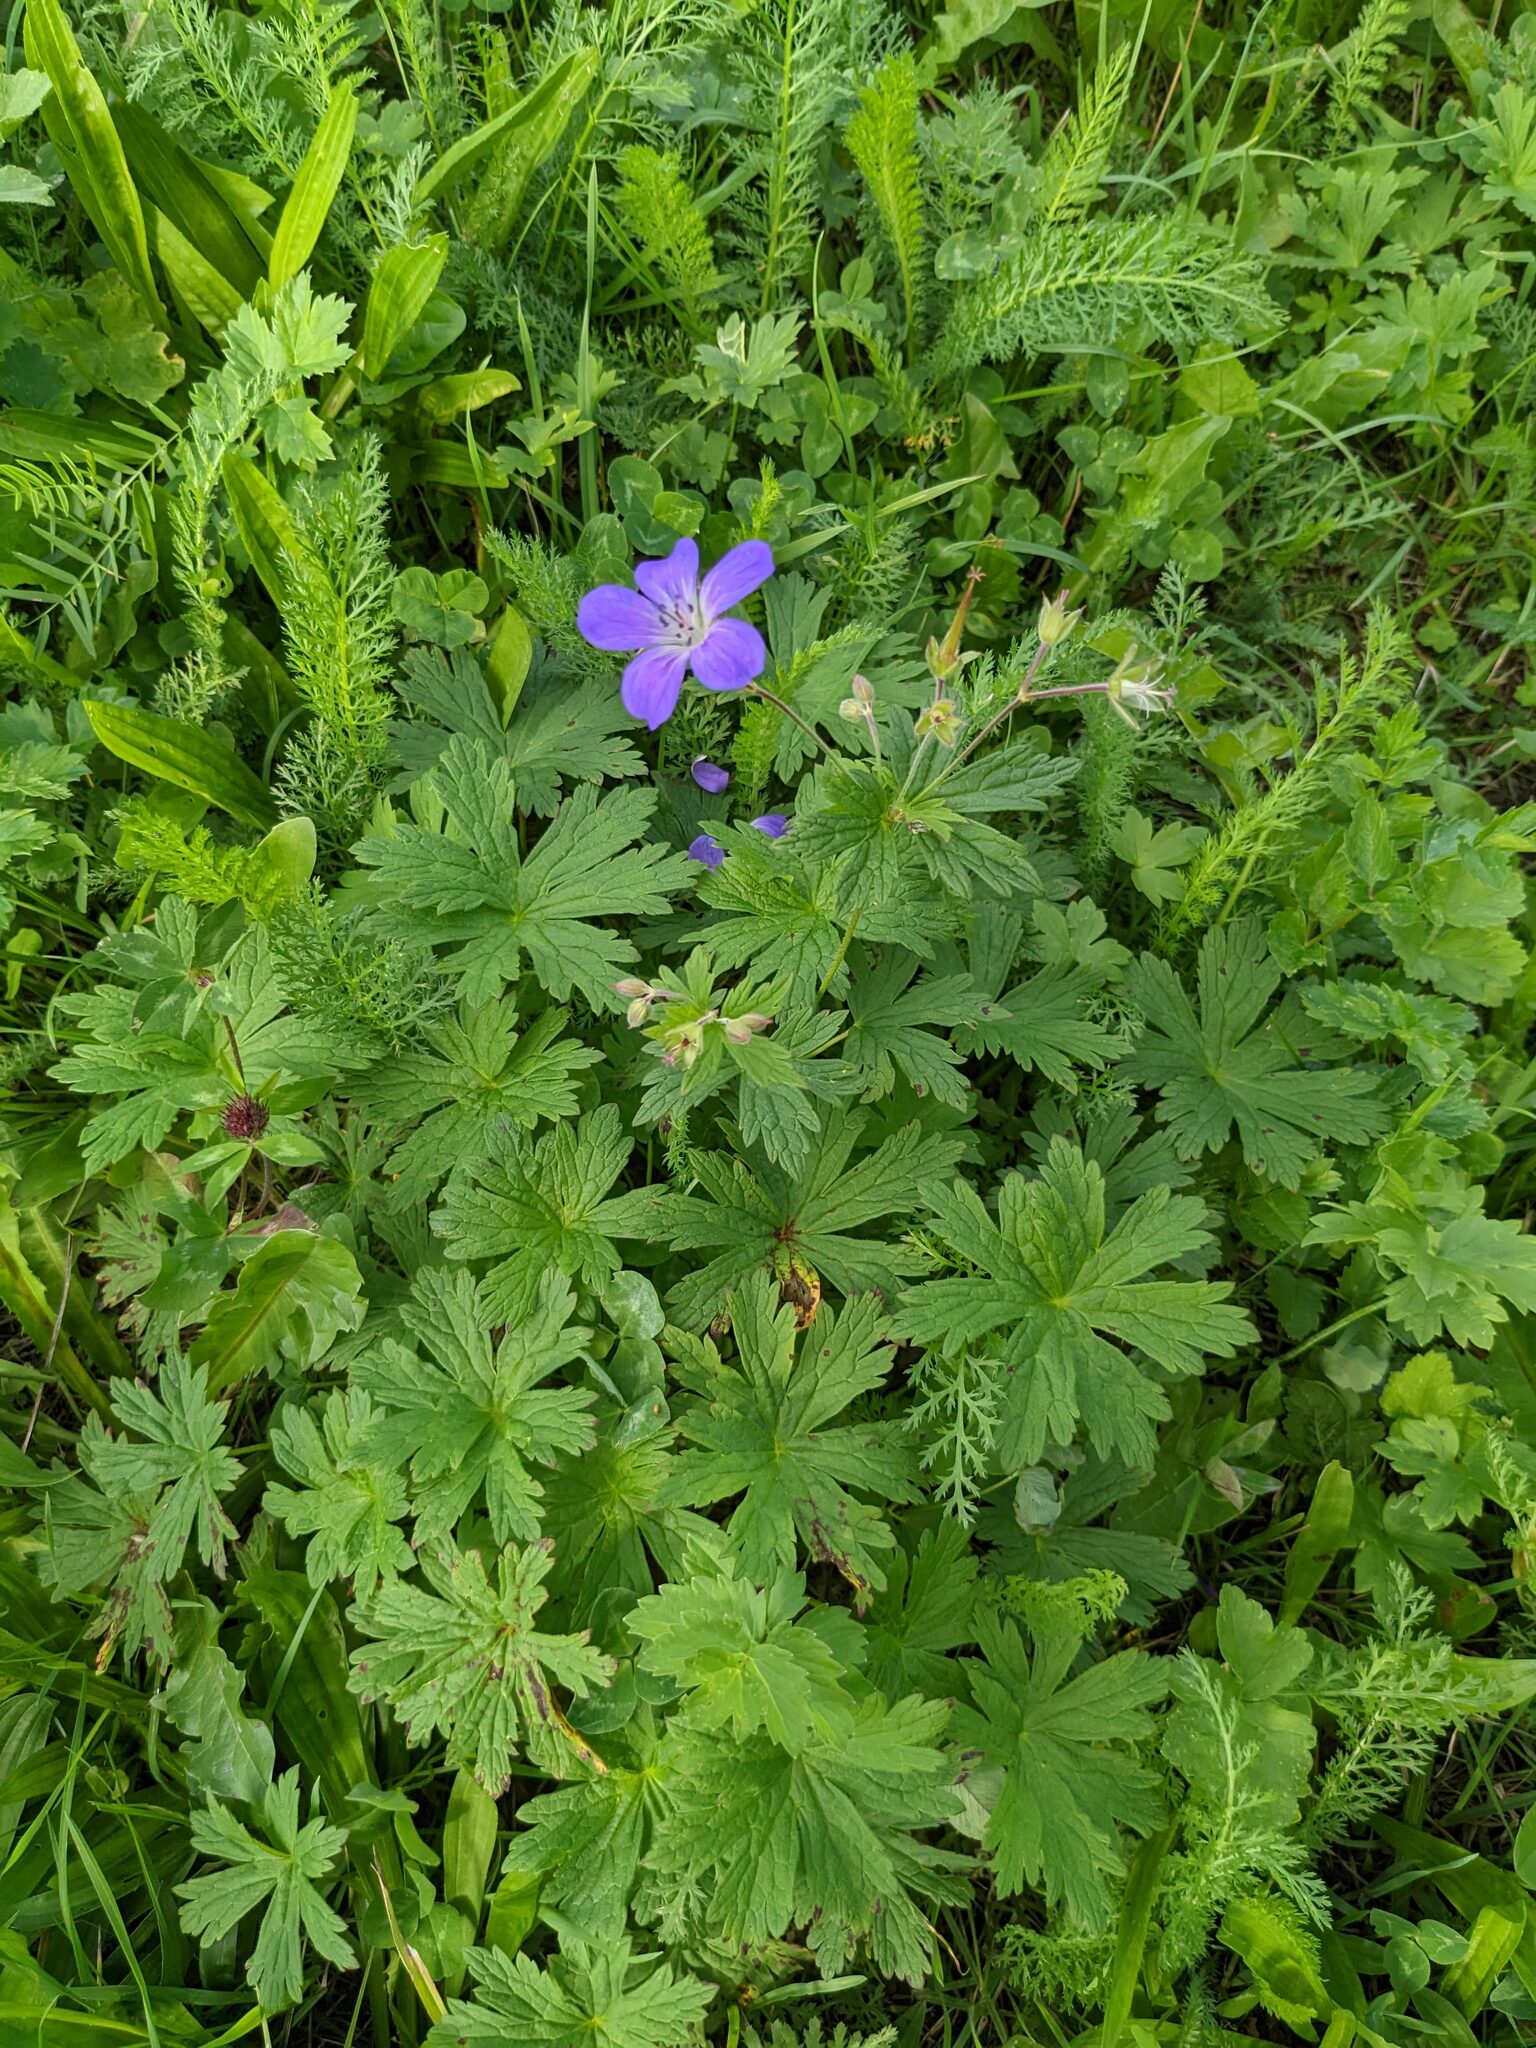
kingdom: Plantae
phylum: Tracheophyta
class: Magnoliopsida
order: Geraniales
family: Geraniaceae
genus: Geranium
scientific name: Geranium sylvaticum
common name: Wood crane's-bill
